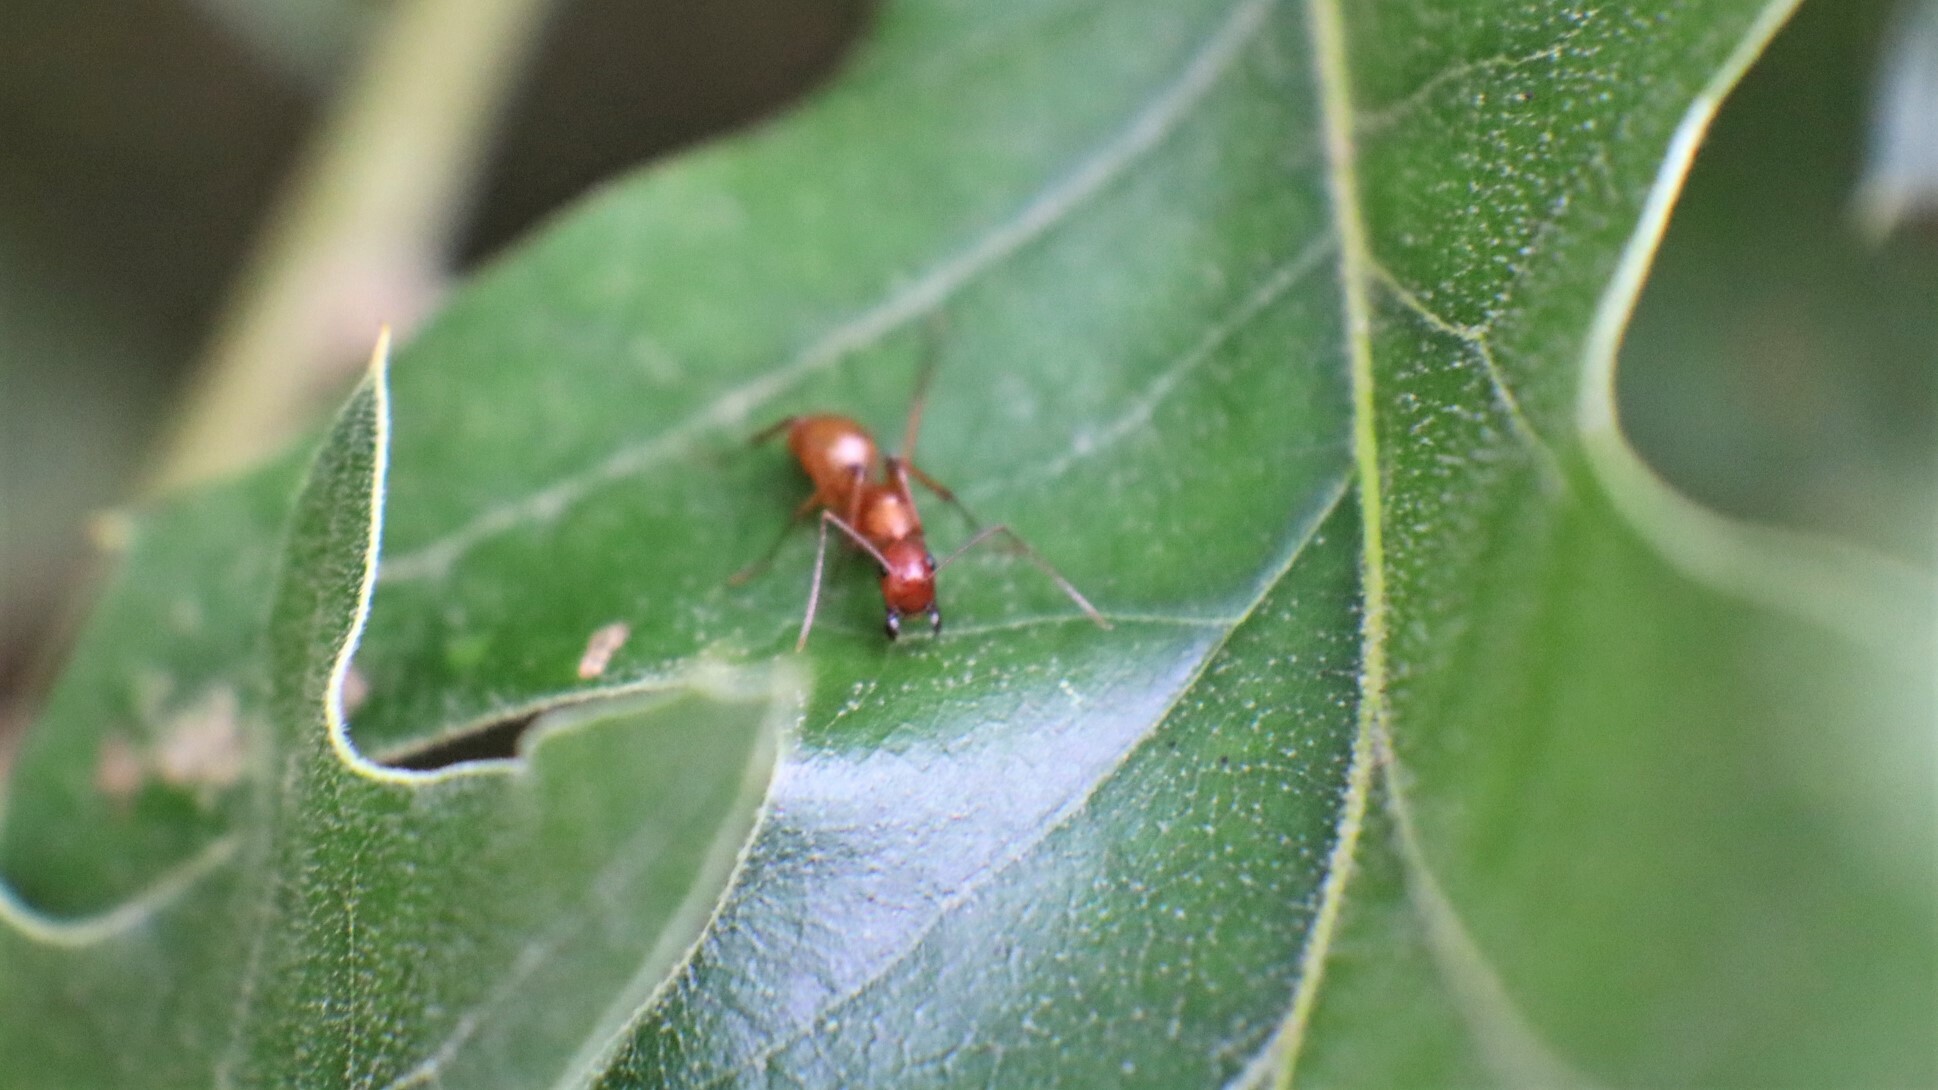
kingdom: Animalia
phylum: Arthropoda
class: Insecta
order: Hymenoptera
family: Formicidae
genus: Camponotus
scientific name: Camponotus castaneus
